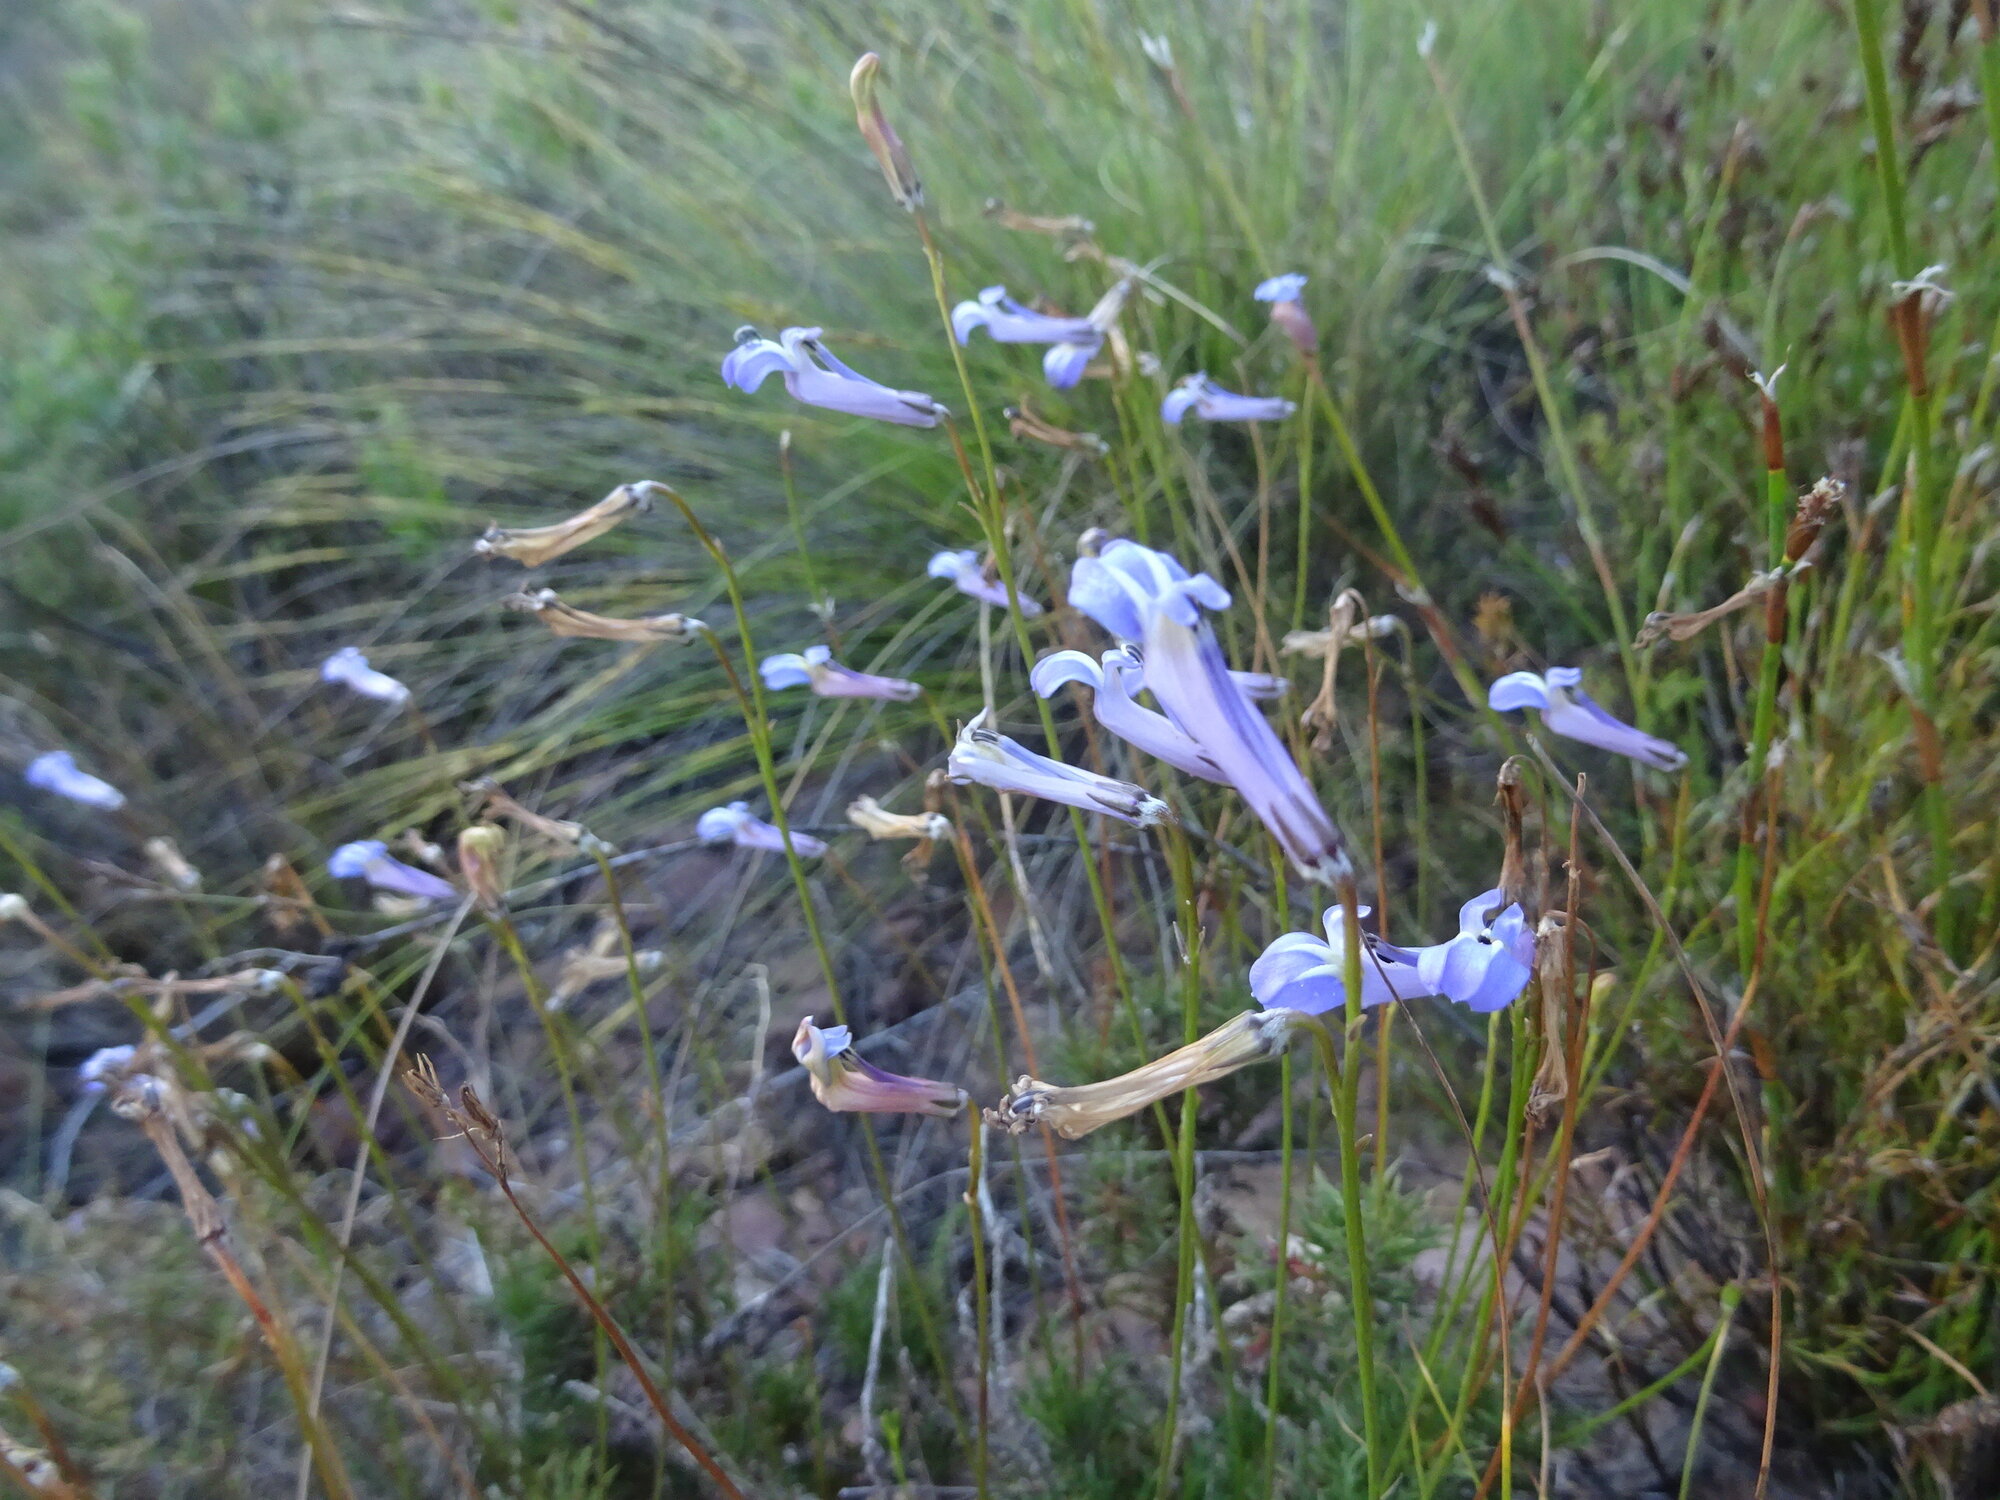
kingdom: Plantae
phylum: Tracheophyta
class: Magnoliopsida
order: Asterales
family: Campanulaceae
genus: Lobelia
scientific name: Lobelia coronopifolia
